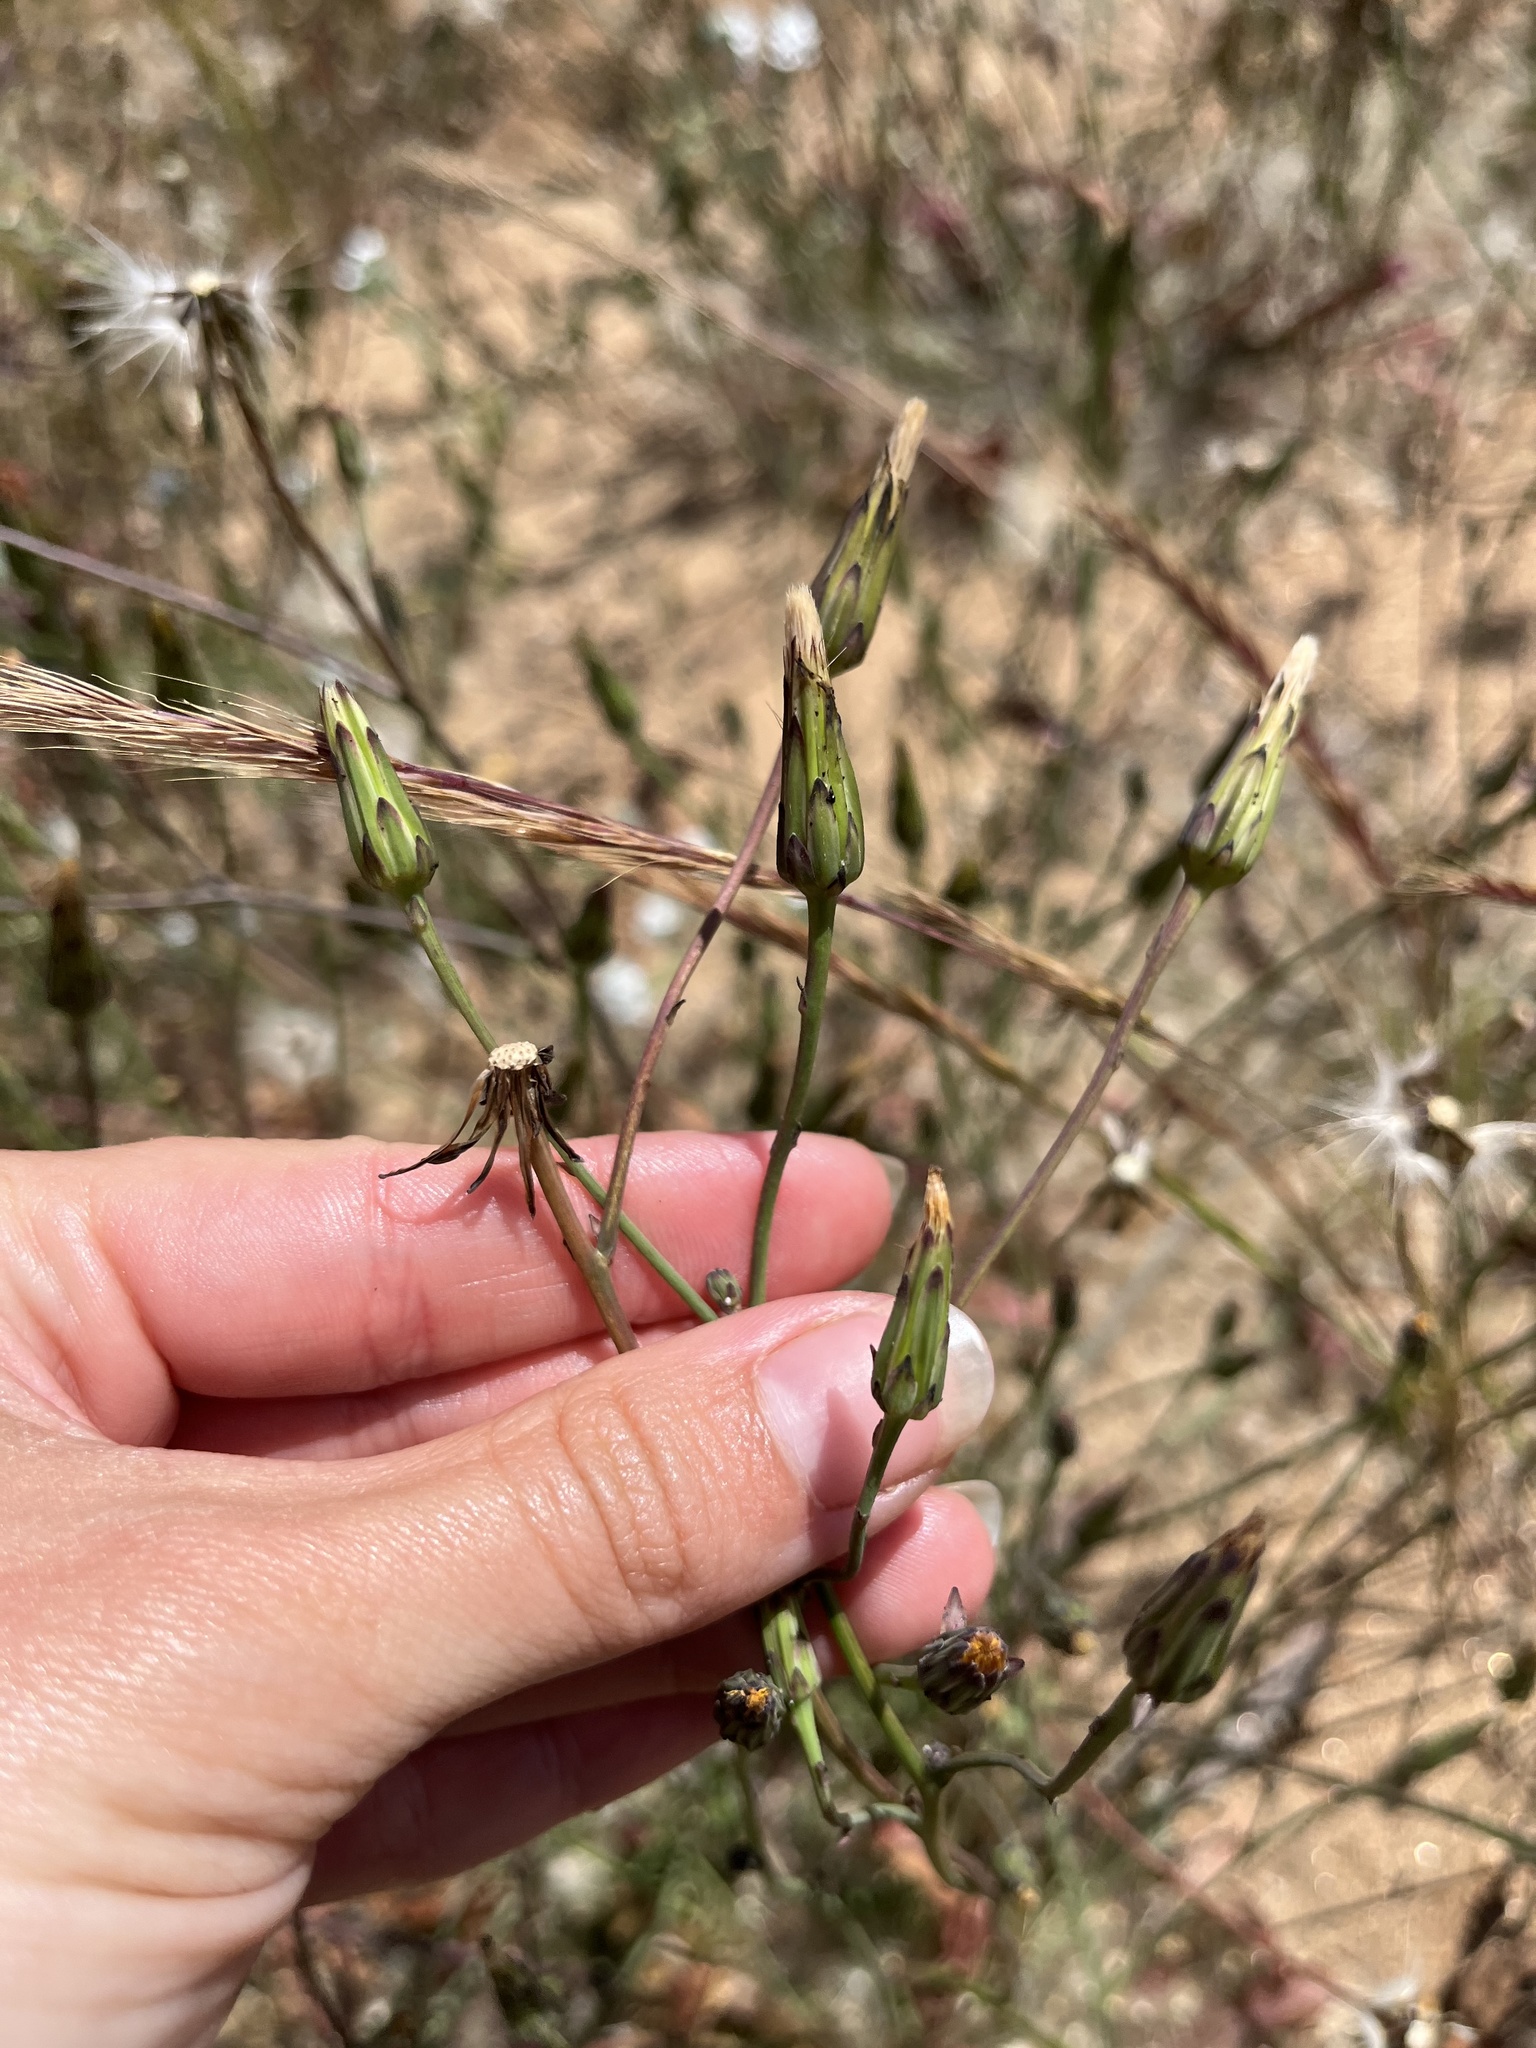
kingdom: Plantae
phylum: Tracheophyta
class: Magnoliopsida
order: Asterales
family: Asteraceae
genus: Hypochaeris
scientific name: Hypochaeris glabra
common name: Smooth catsear
